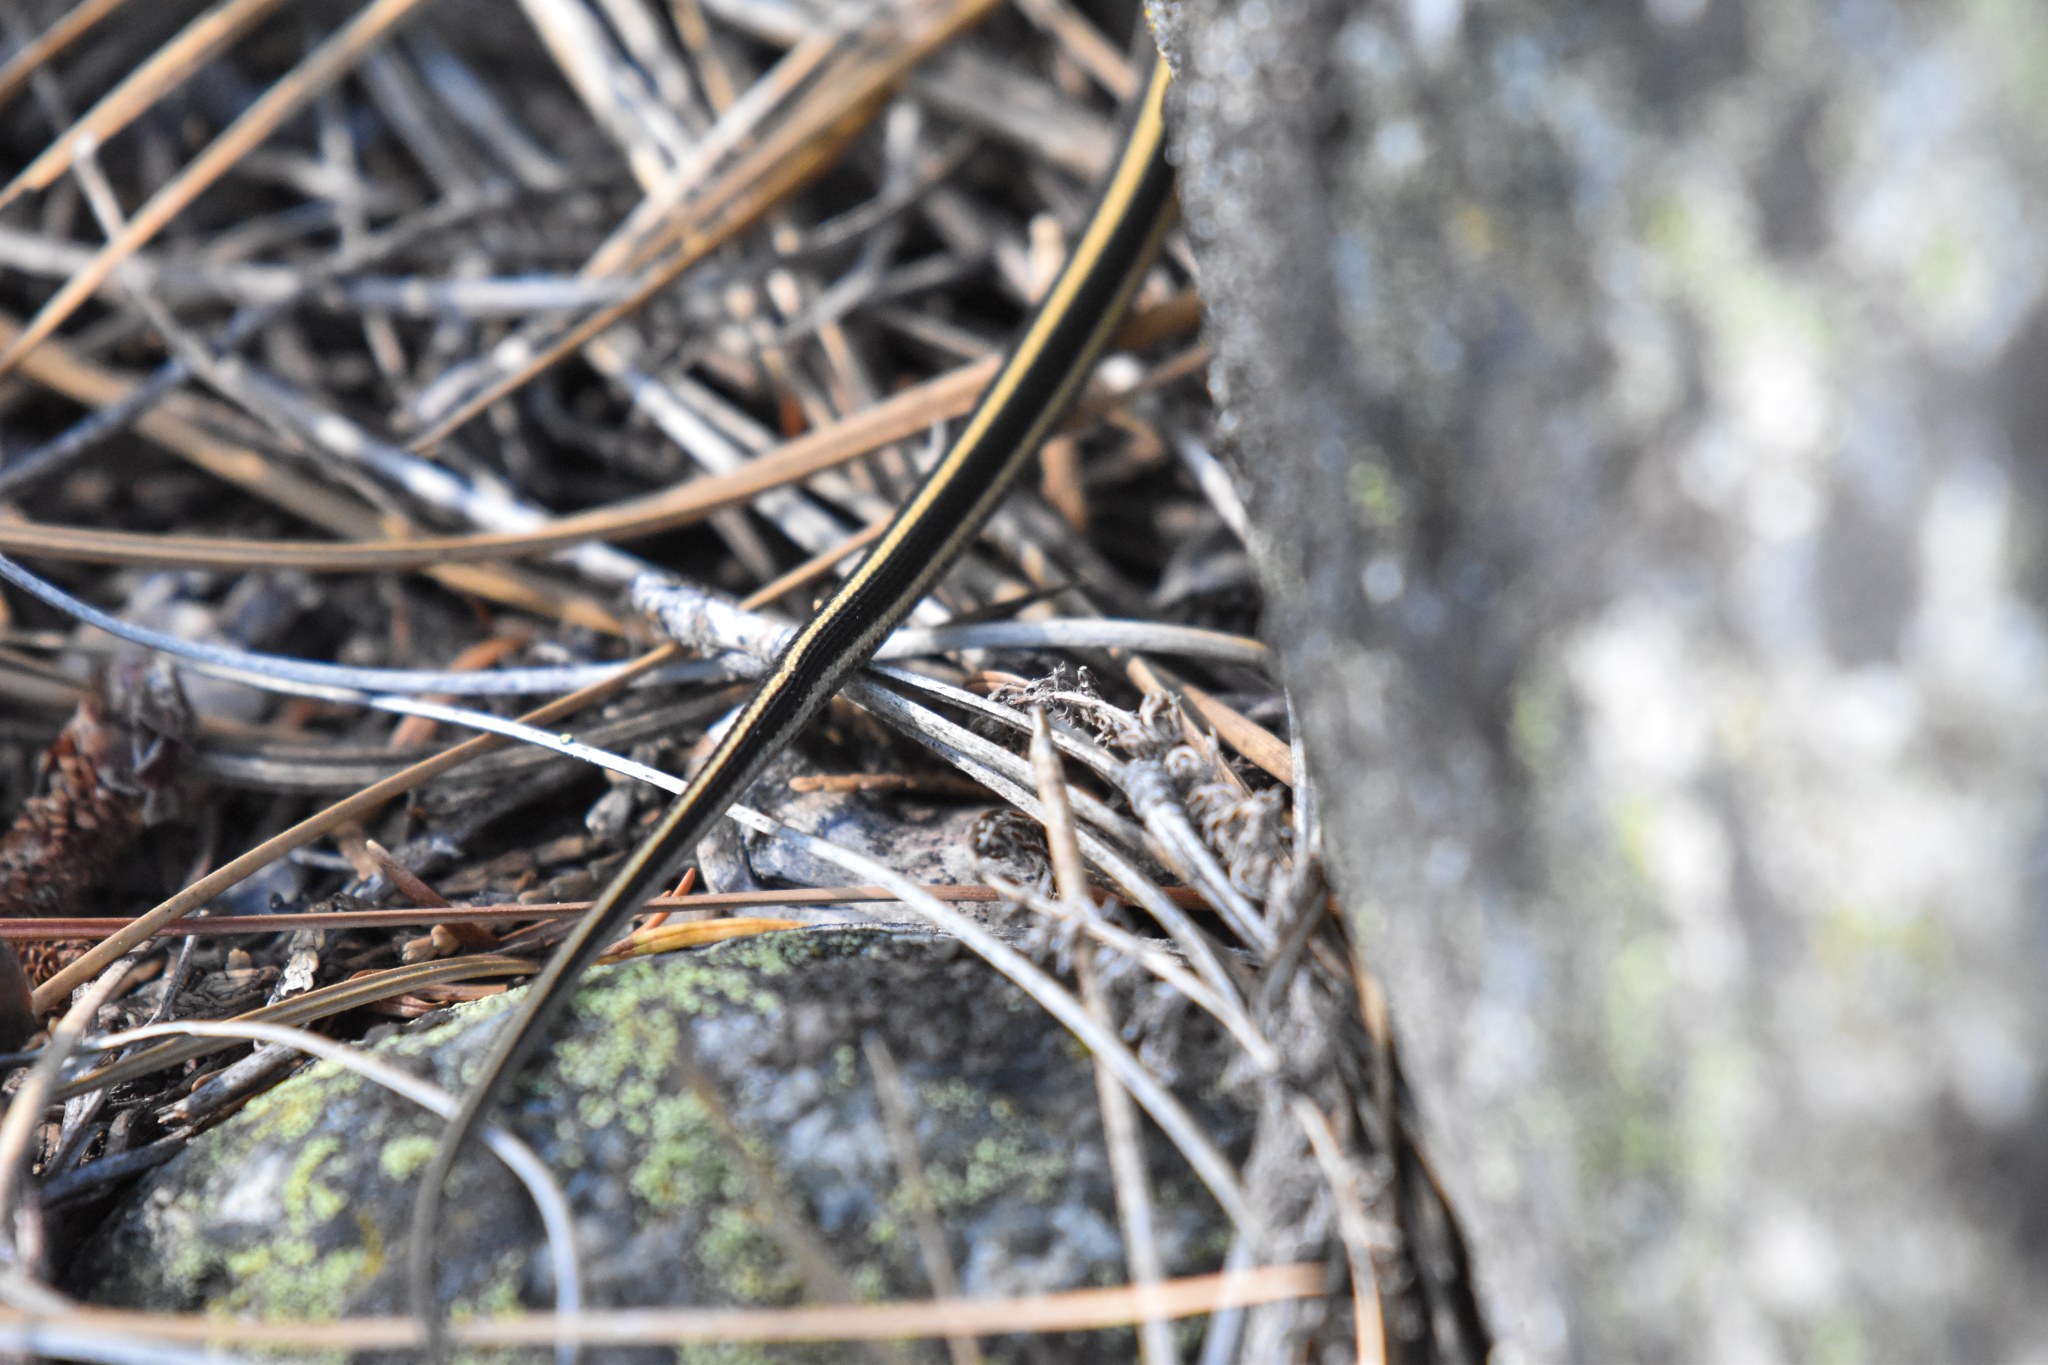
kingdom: Animalia
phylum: Chordata
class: Squamata
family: Colubridae
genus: Thamnophis
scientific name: Thamnophis elegans
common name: Western terrestrial garter snake
